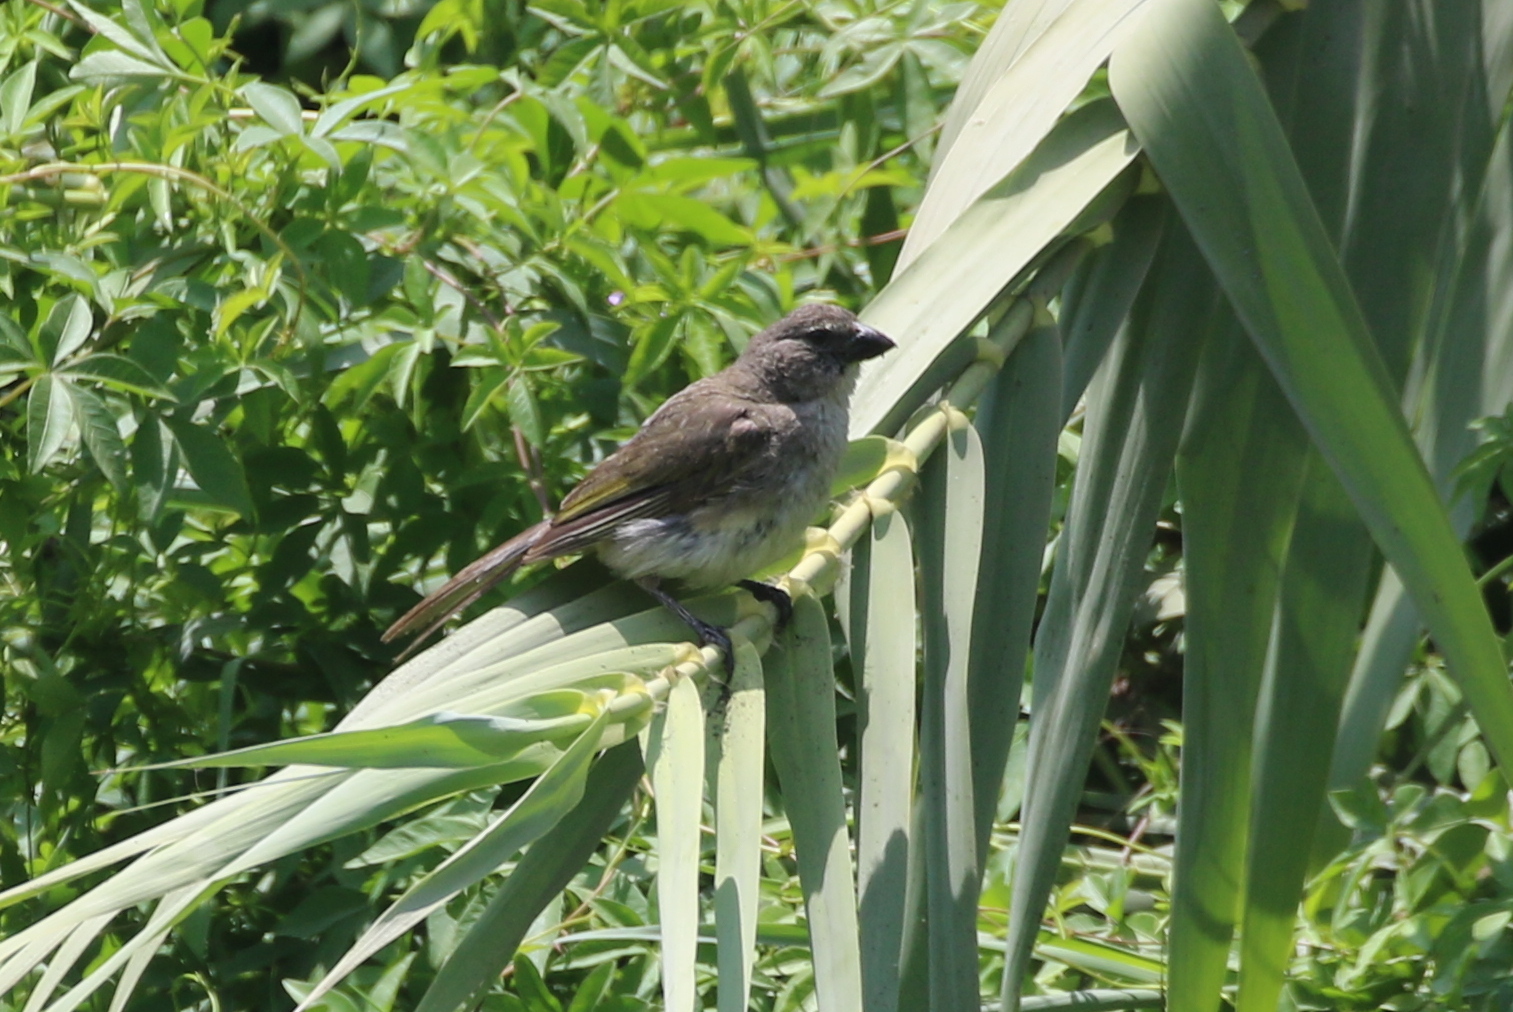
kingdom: Animalia
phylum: Chordata
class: Aves
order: Passeriformes
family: Thraupidae
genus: Saltator
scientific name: Saltator striatipectus
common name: Streaked saltator
